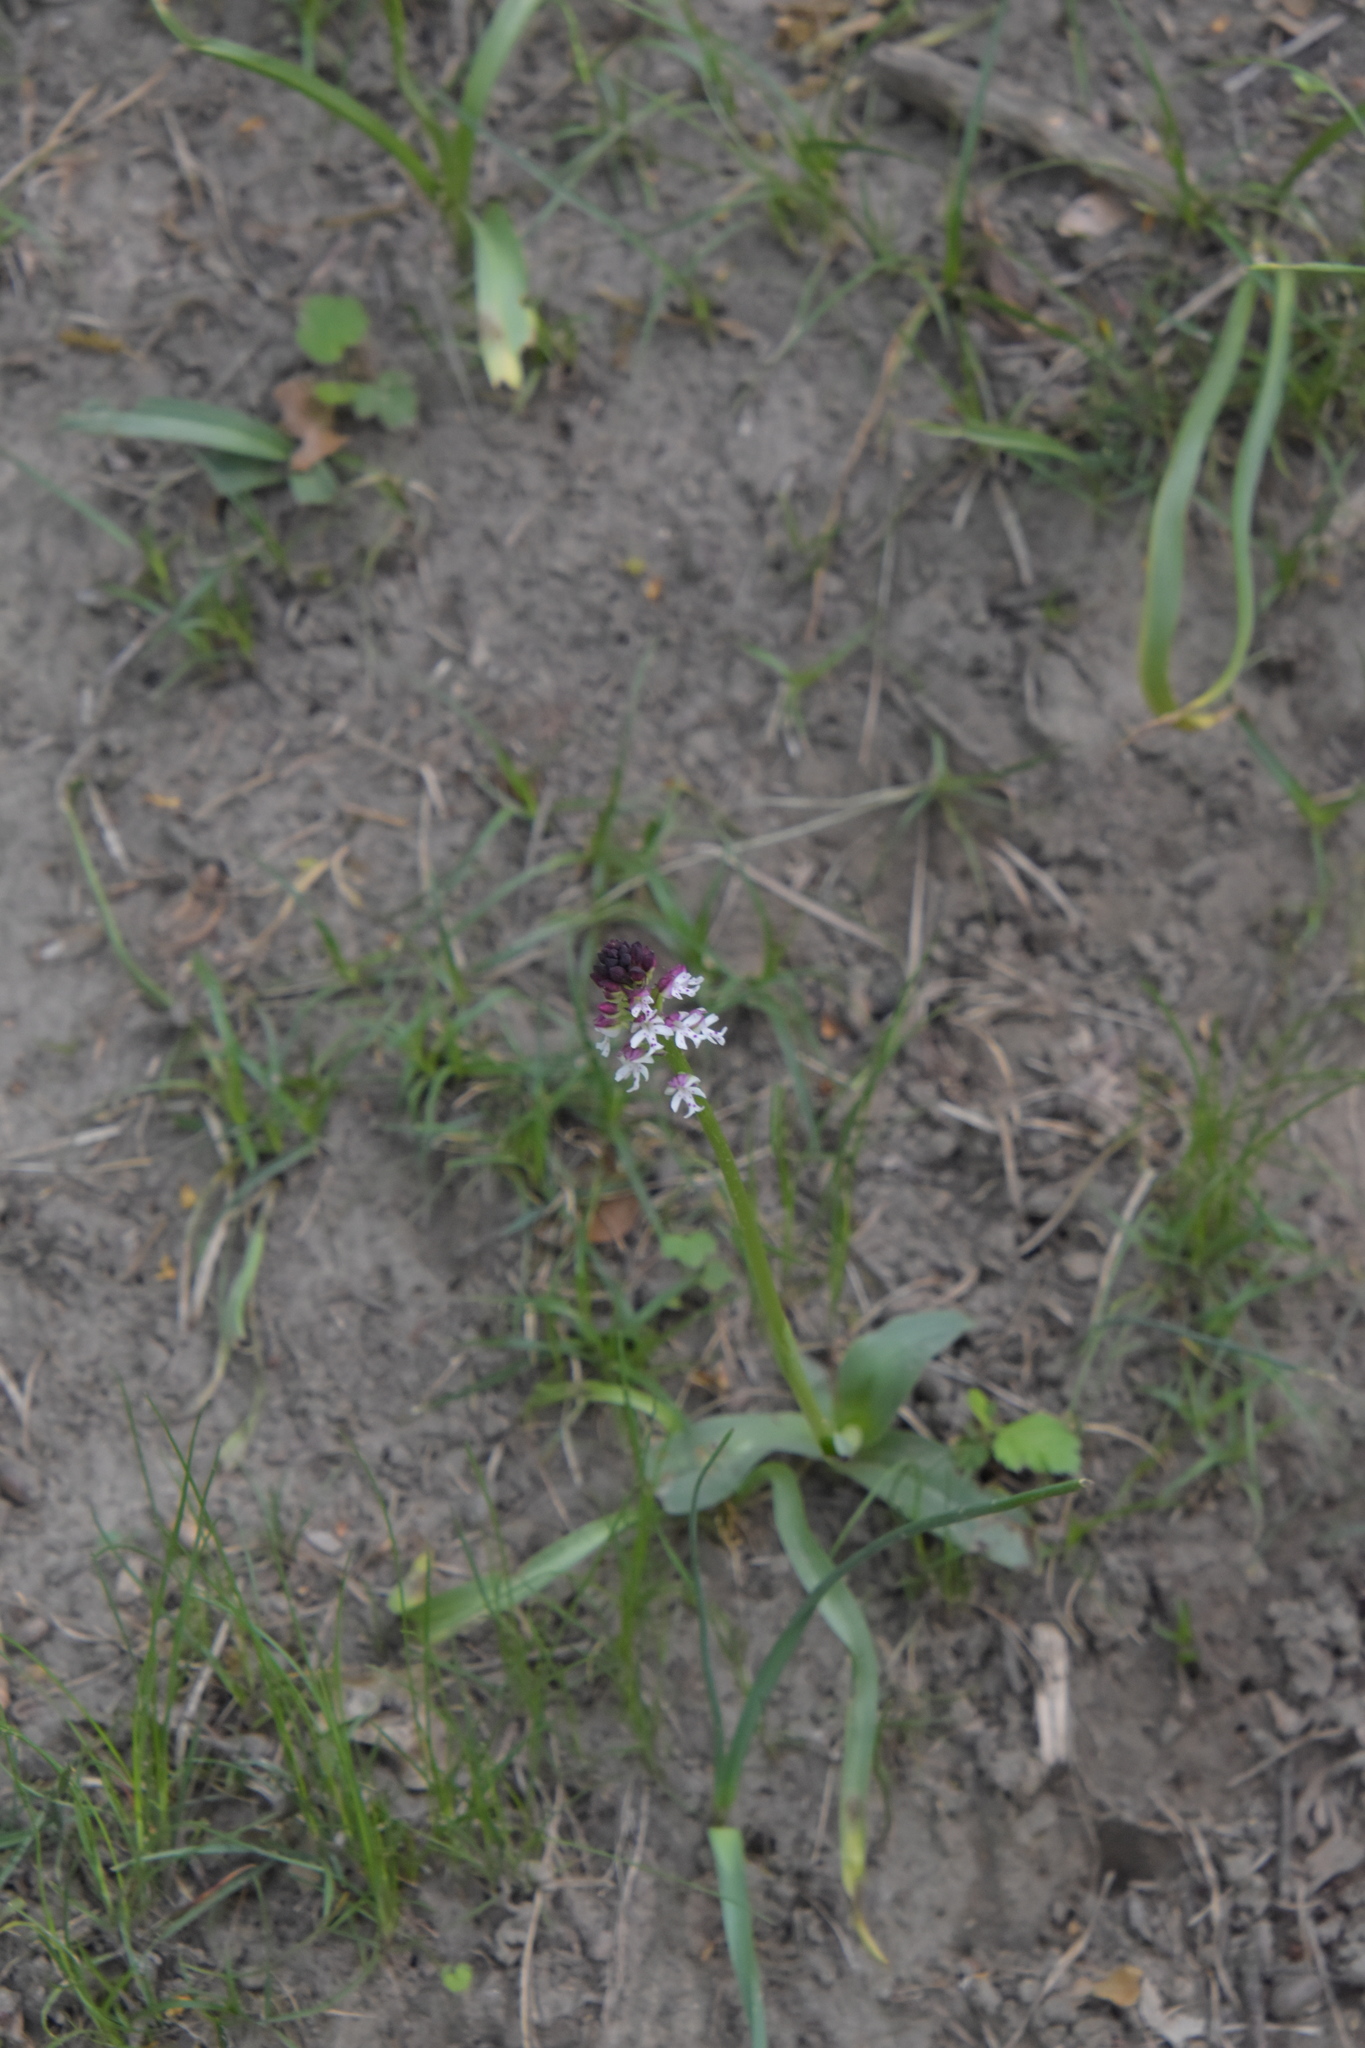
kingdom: Plantae
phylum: Tracheophyta
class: Liliopsida
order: Asparagales
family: Orchidaceae
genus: Neotinea
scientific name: Neotinea ustulata
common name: Burnt orchid
